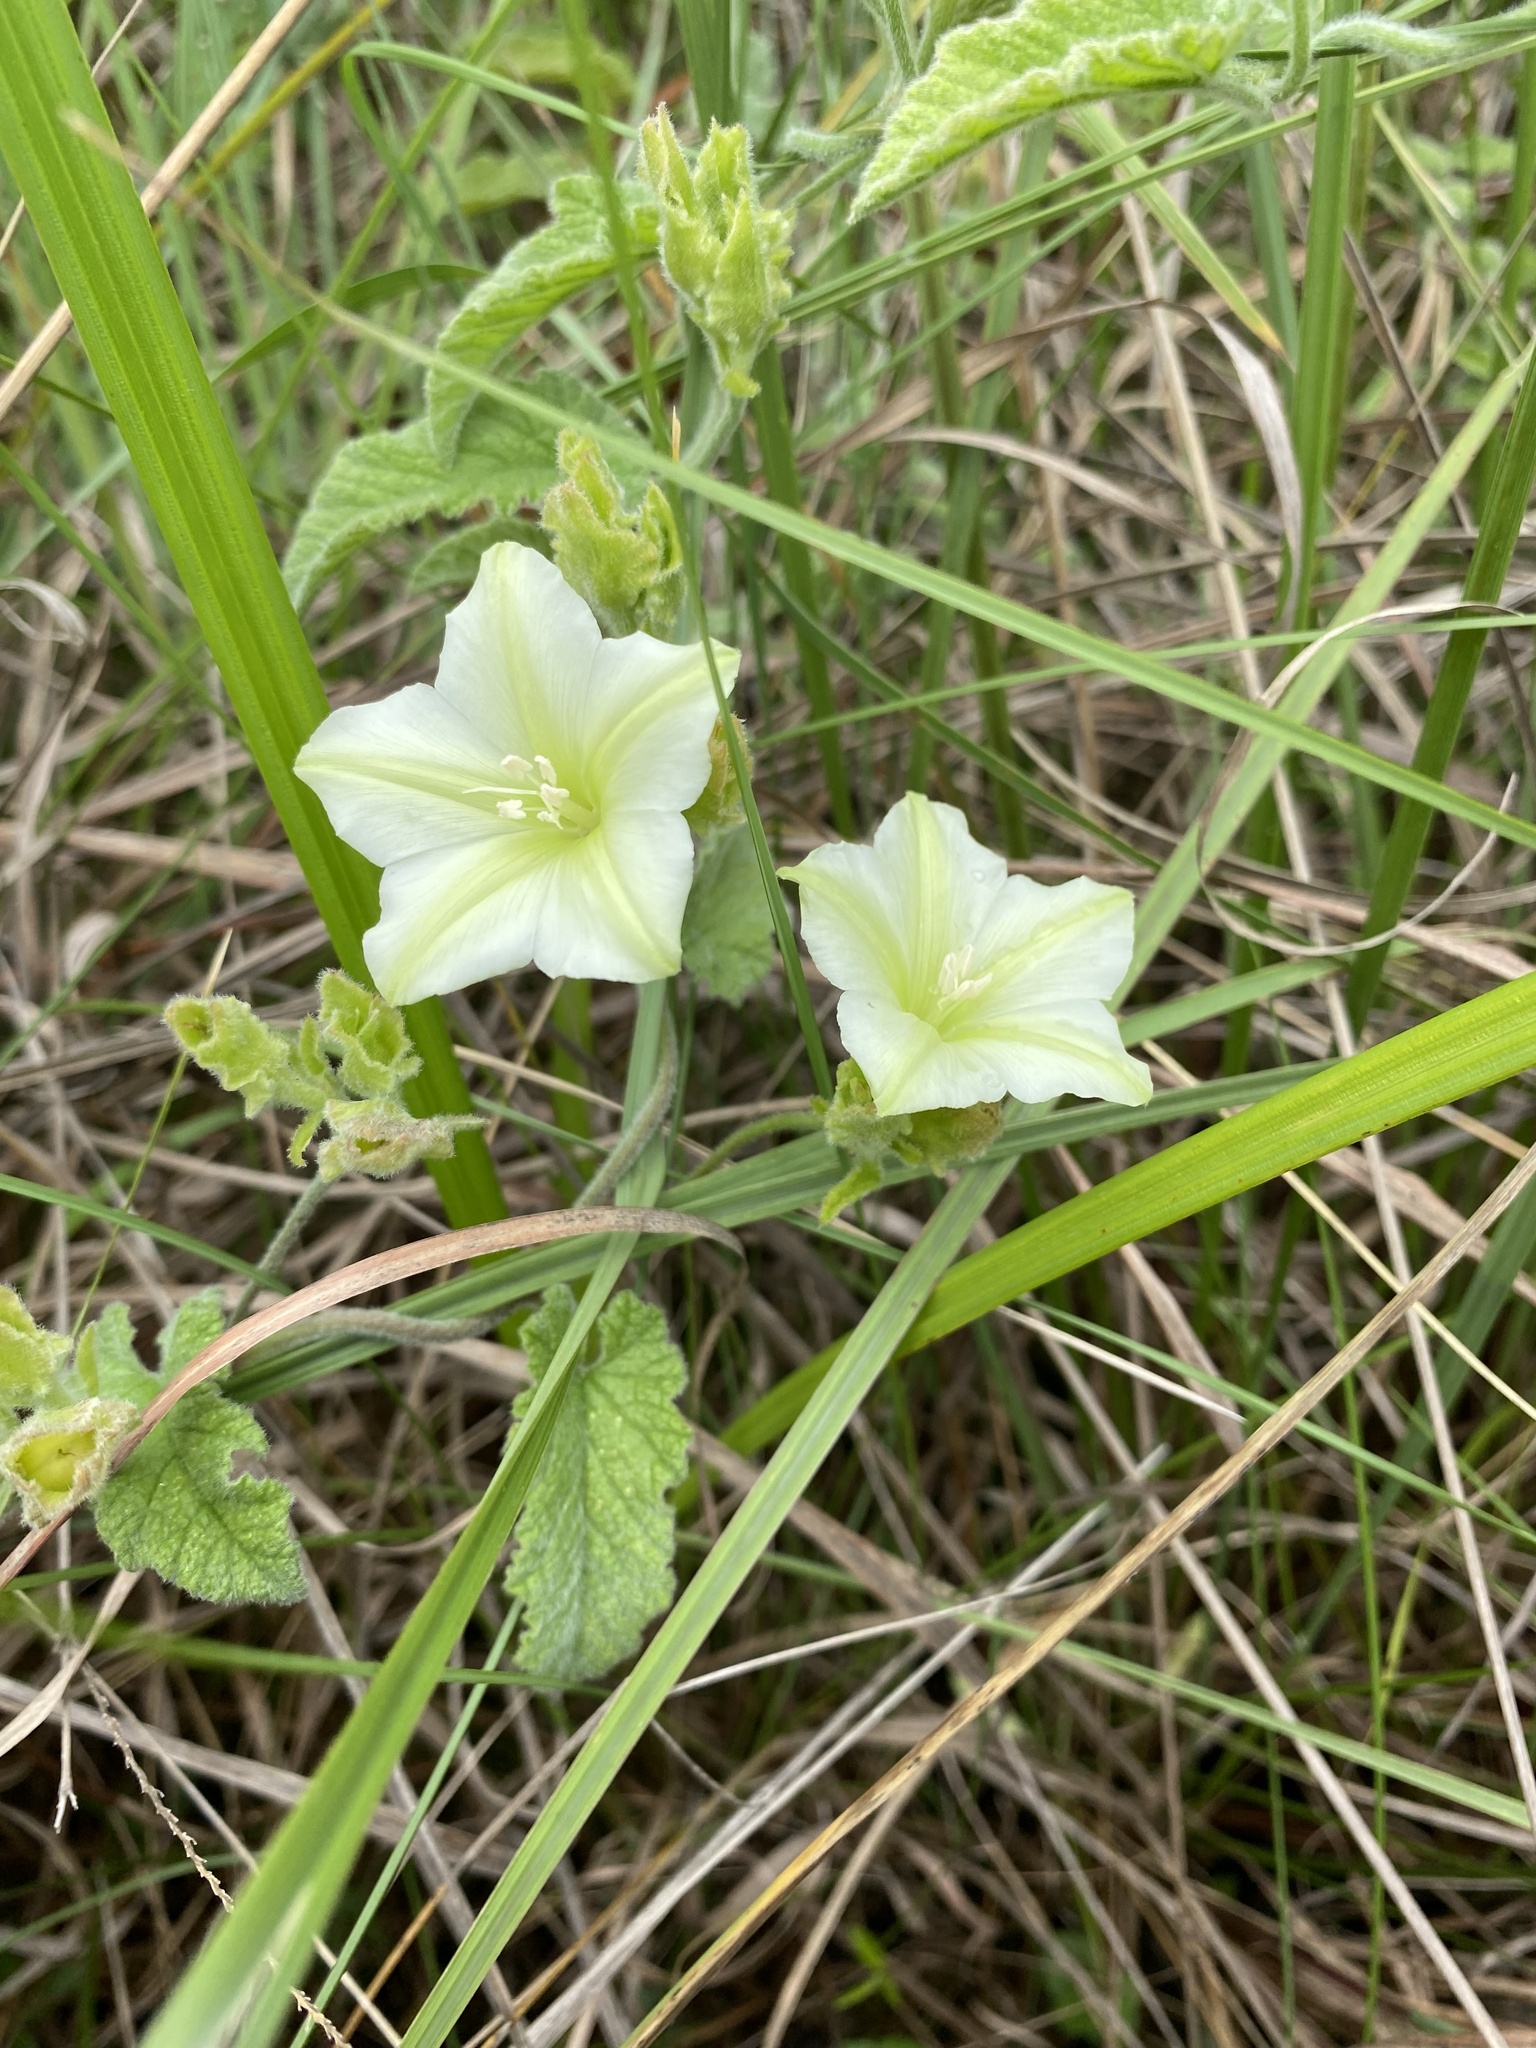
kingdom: Plantae
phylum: Tracheophyta
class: Magnoliopsida
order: Solanales
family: Convolvulaceae
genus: Convolvulus
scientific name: Convolvulus sagittatus
